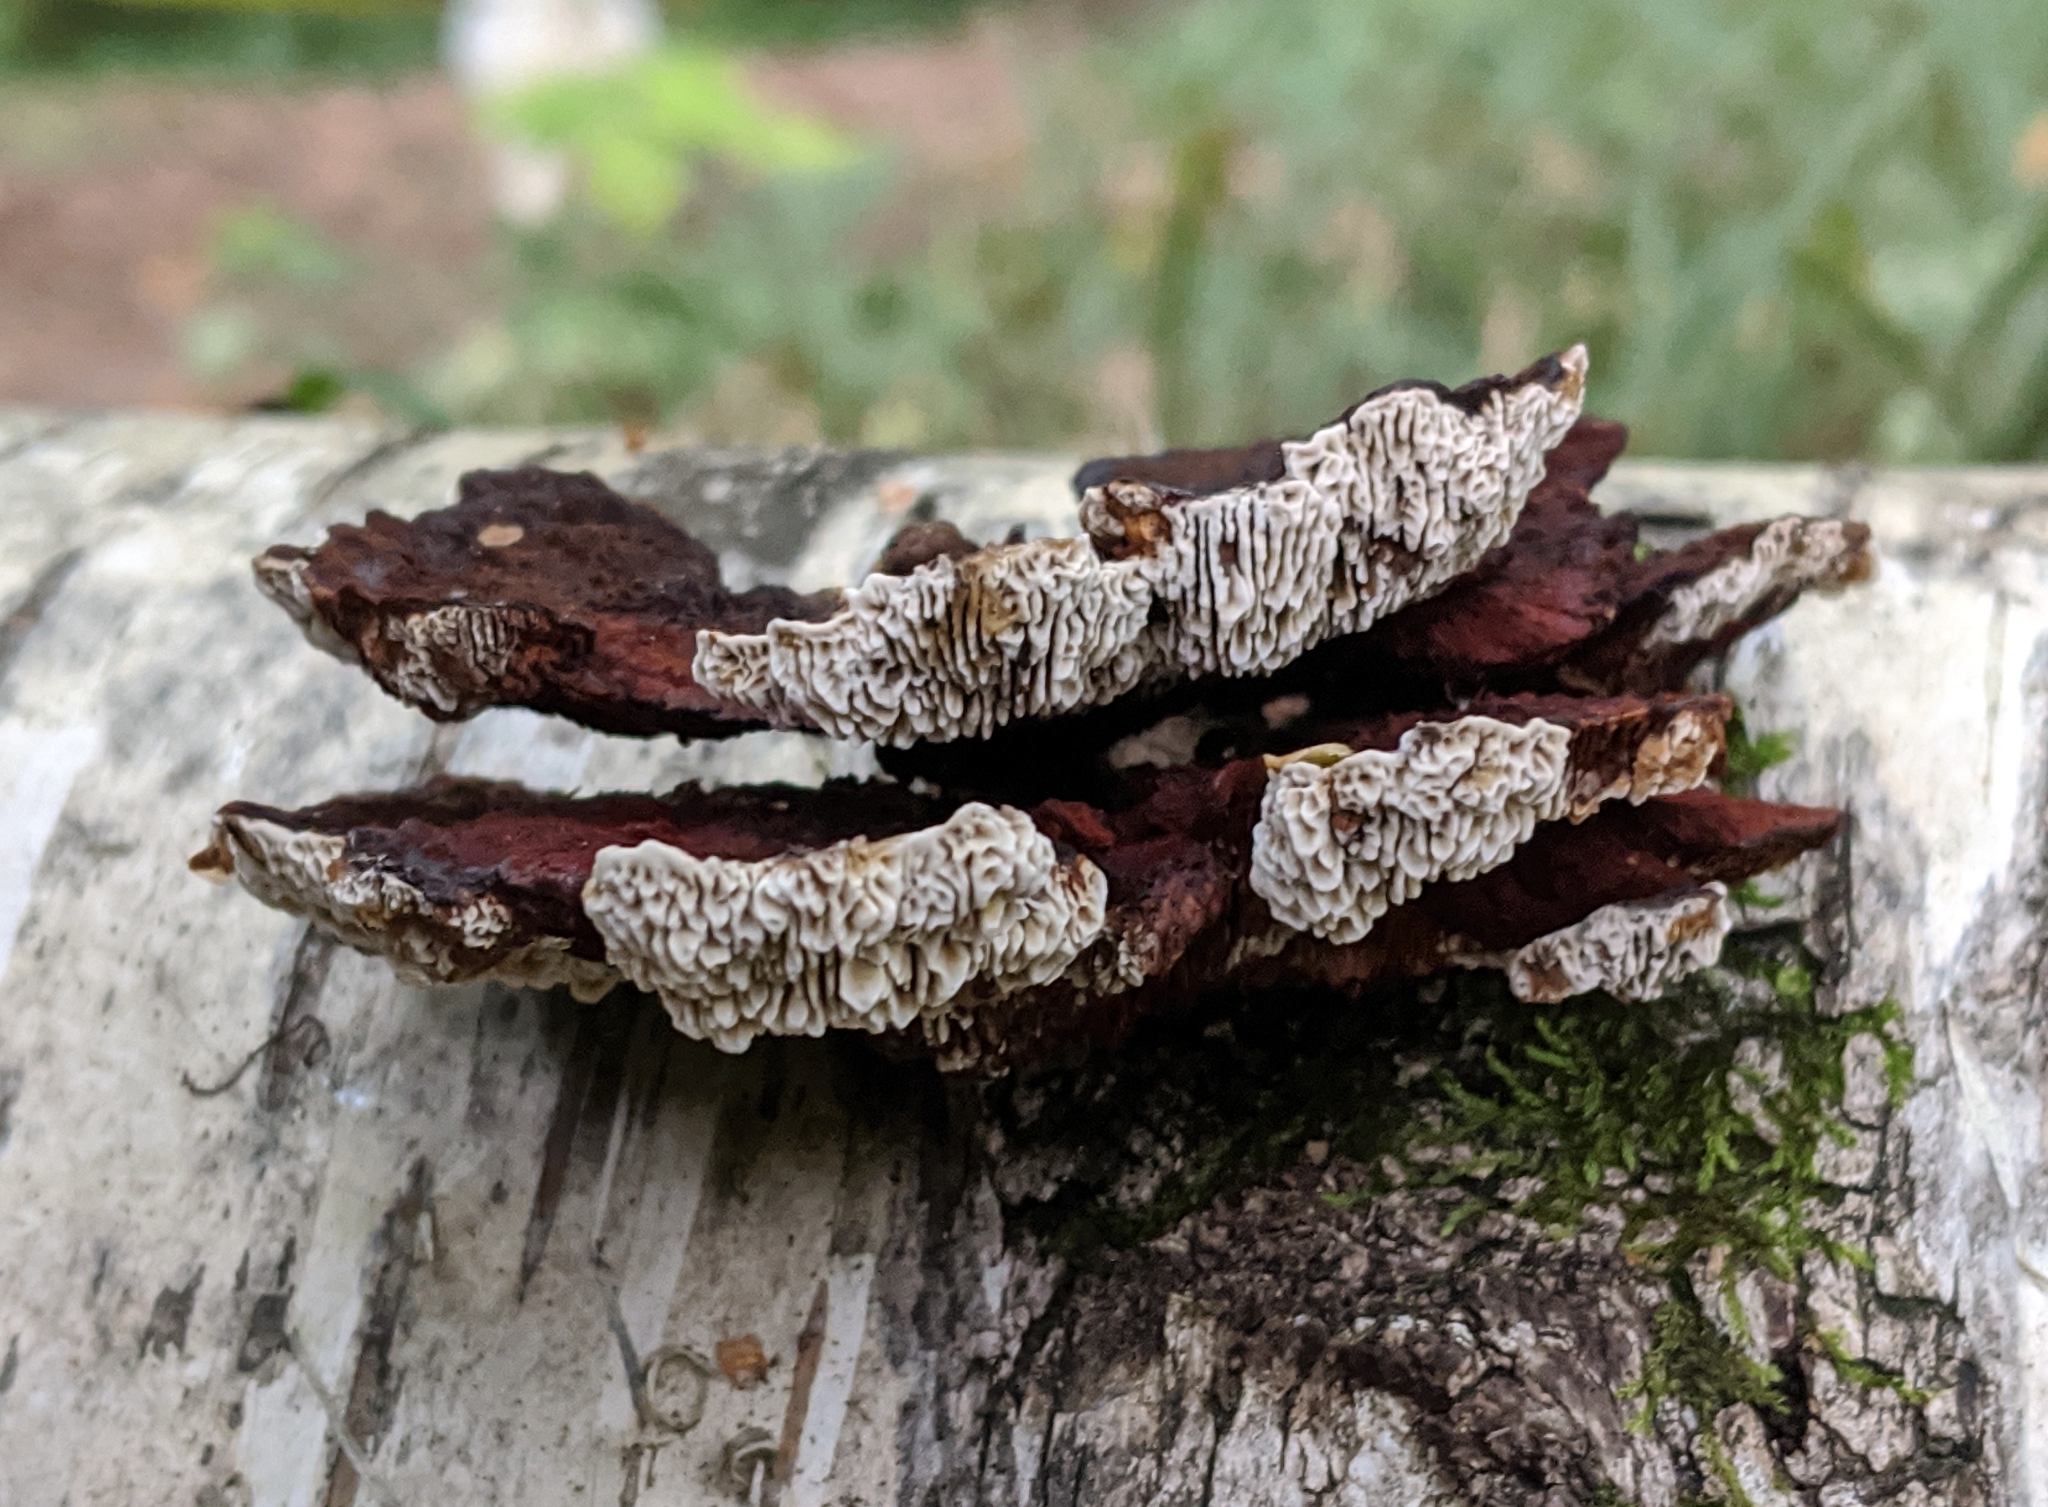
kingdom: Fungi
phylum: Basidiomycota
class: Agaricomycetes
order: Polyporales
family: Polyporaceae
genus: Daedaleopsis
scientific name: Daedaleopsis tricolor
